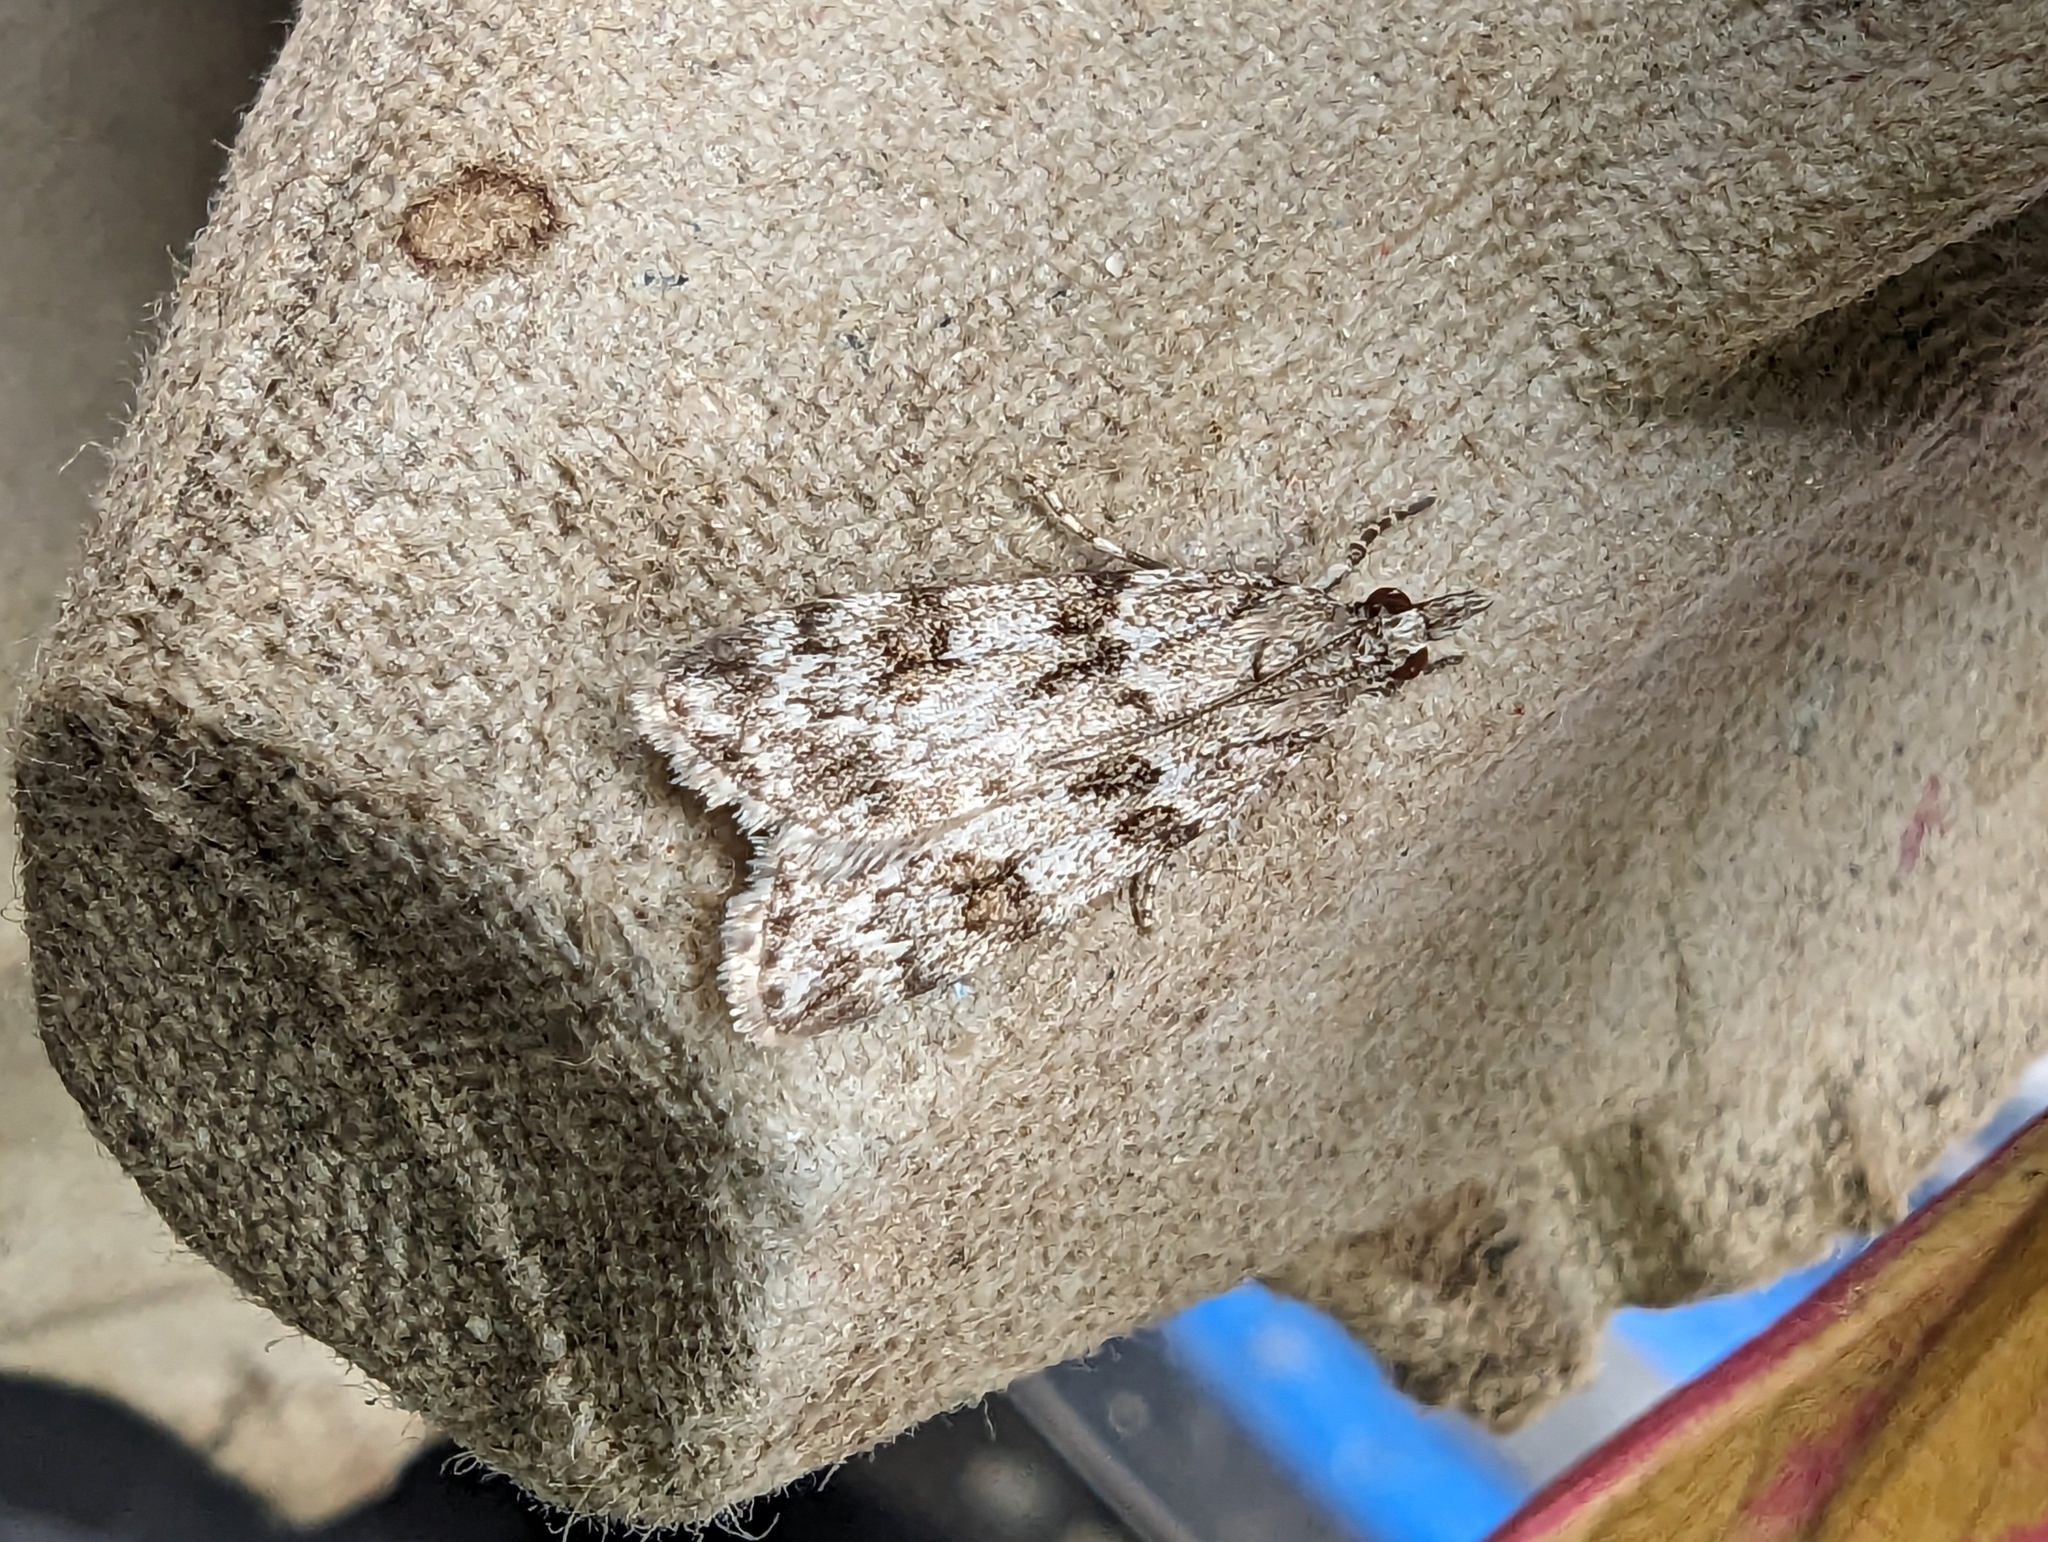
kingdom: Animalia
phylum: Arthropoda
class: Insecta
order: Lepidoptera
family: Crambidae
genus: Scoparia
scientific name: Scoparia ambigualis
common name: Common grey
